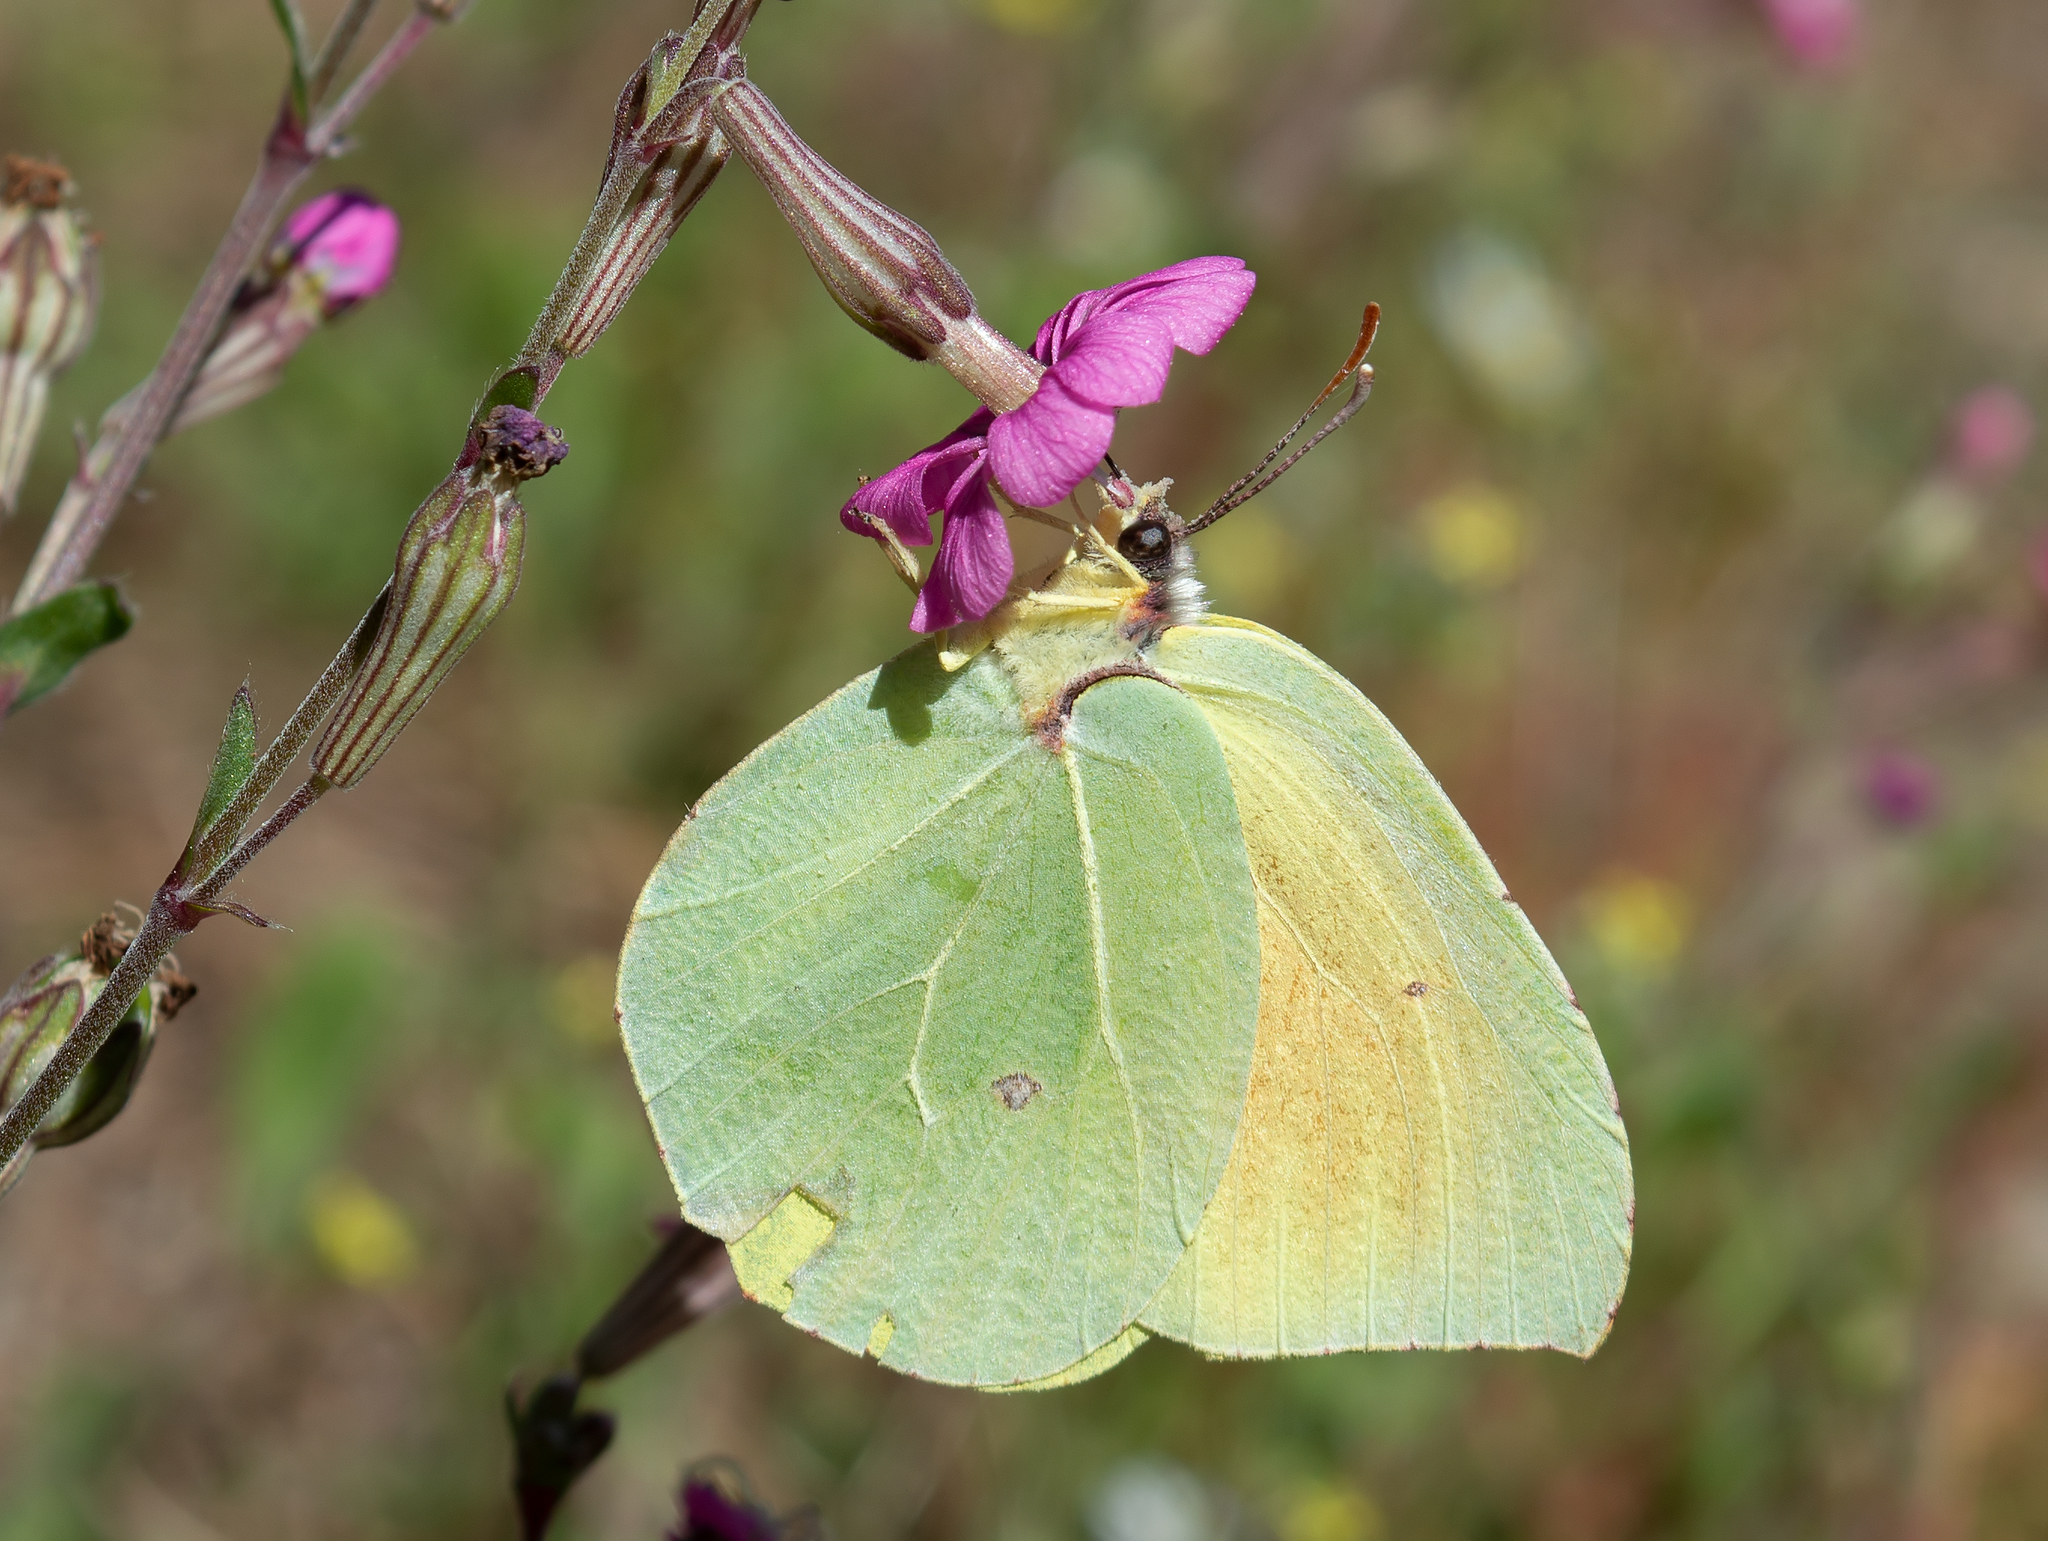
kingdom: Animalia
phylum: Arthropoda
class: Insecta
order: Lepidoptera
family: Pieridae
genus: Gonepteryx
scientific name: Gonepteryx cleopatra
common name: Cleopatra
